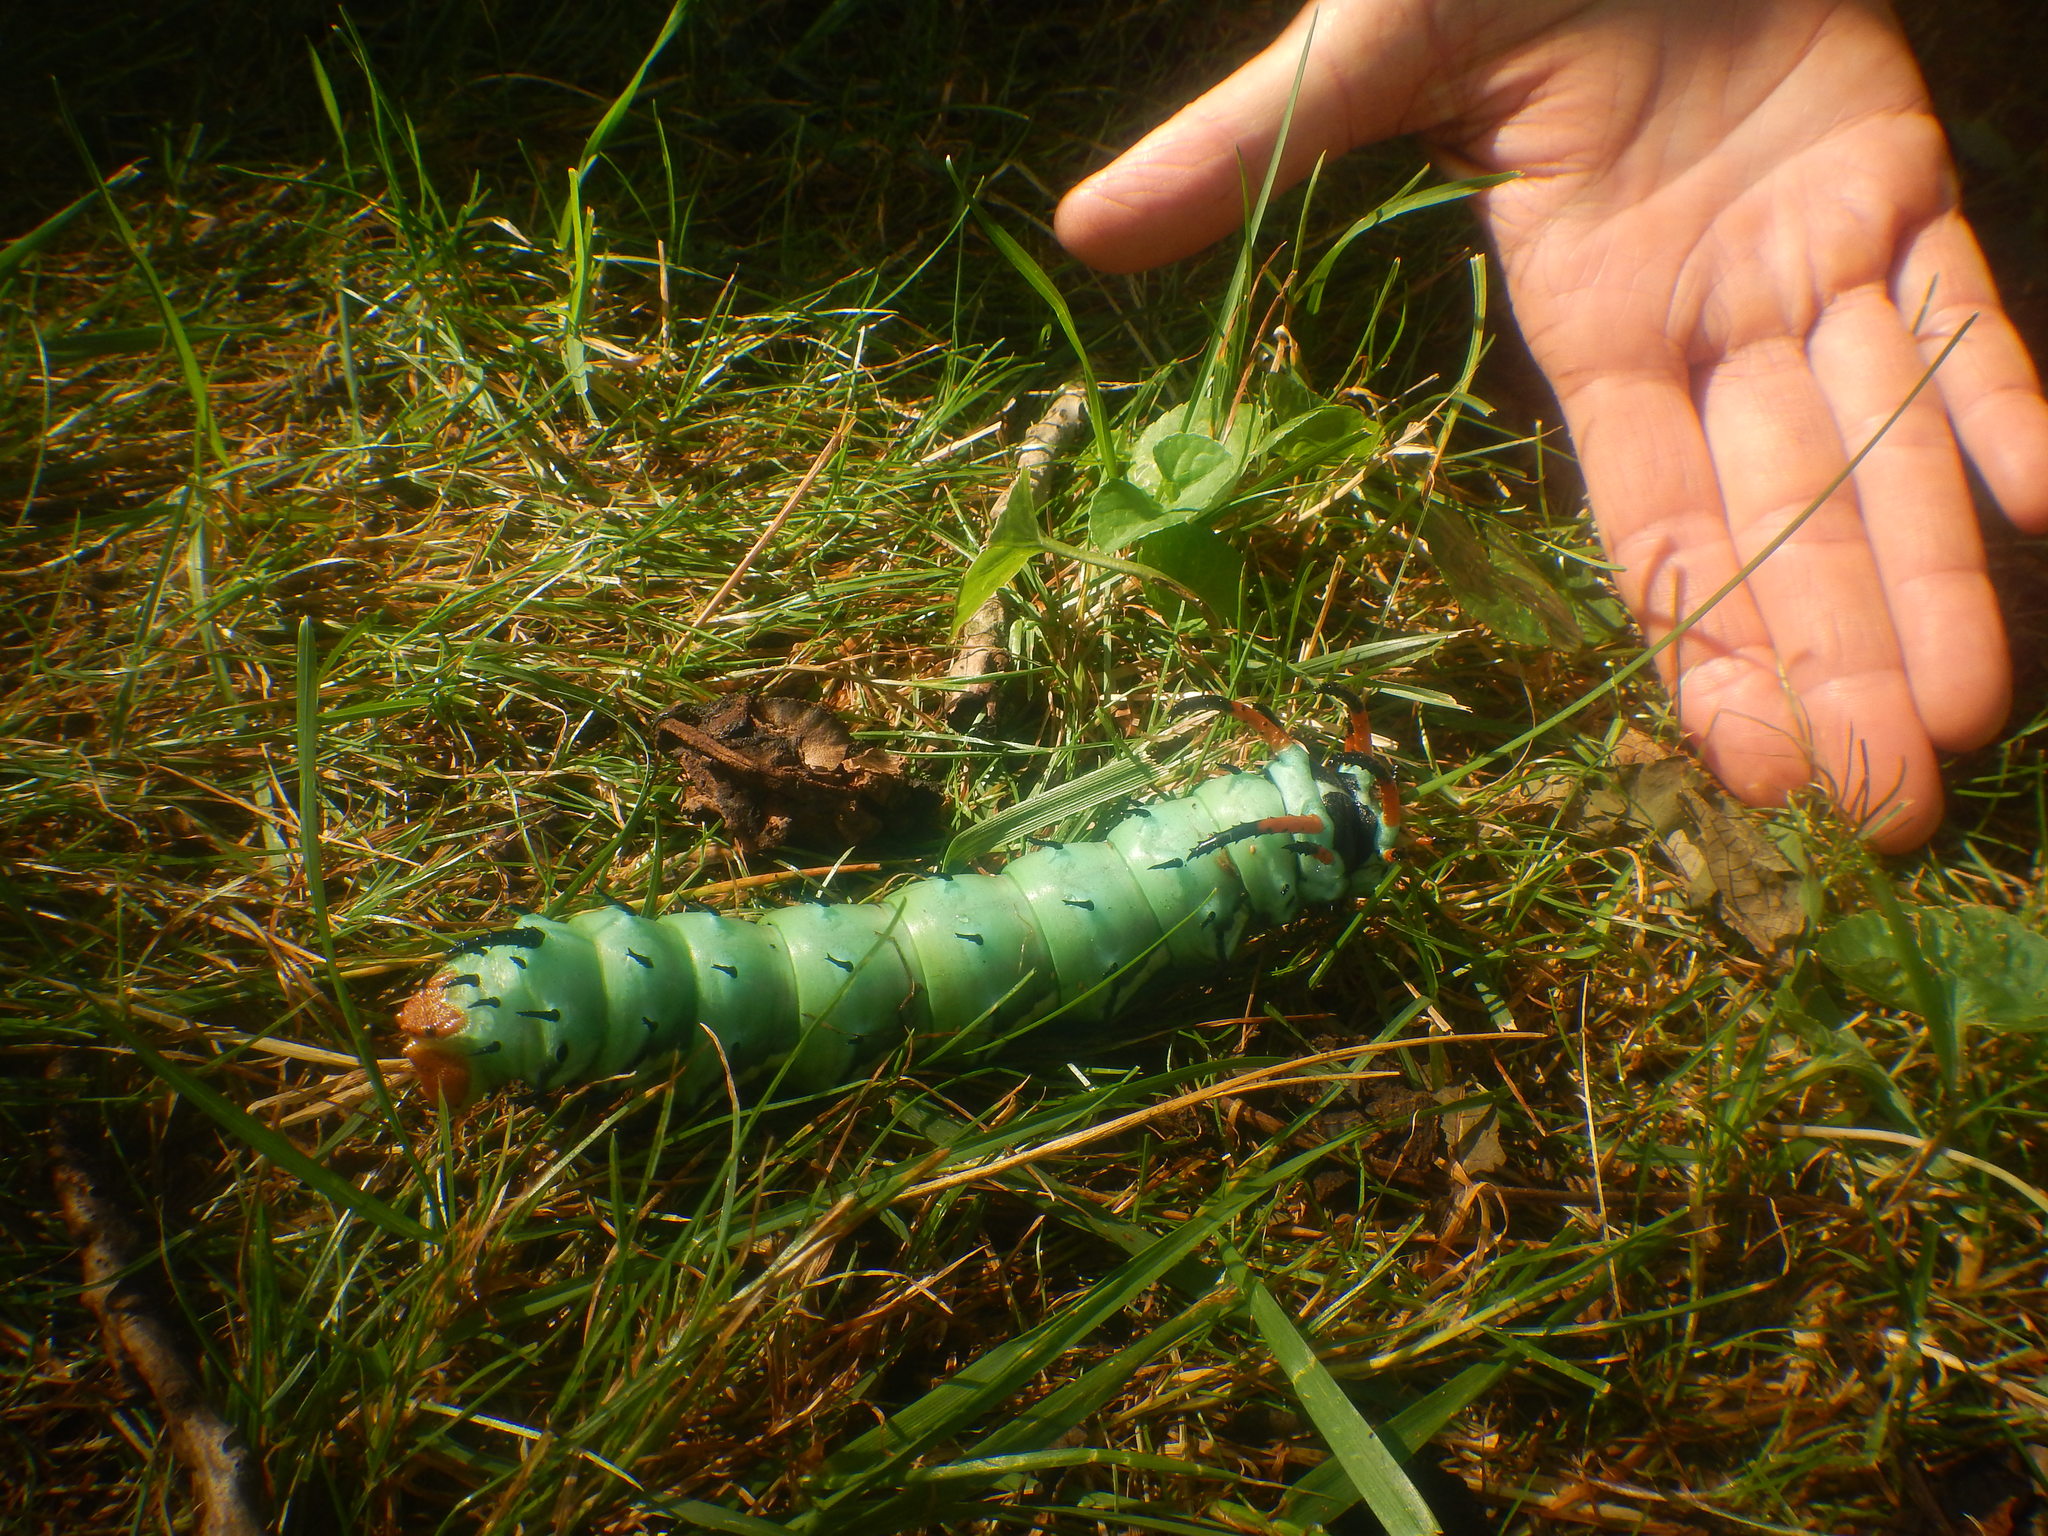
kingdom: Animalia
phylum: Arthropoda
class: Insecta
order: Lepidoptera
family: Saturniidae
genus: Citheronia
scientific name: Citheronia regalis
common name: Hickory horned devil
